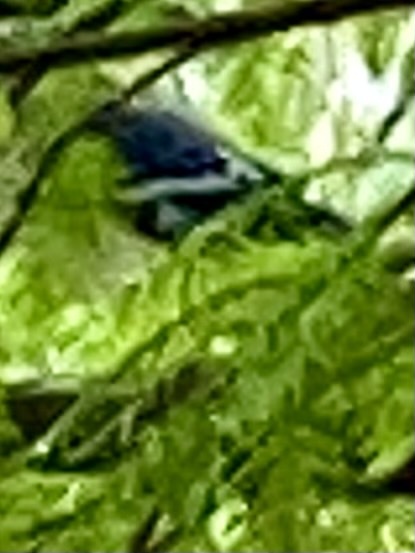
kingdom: Animalia
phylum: Chordata
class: Aves
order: Passeriformes
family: Corvidae
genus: Cyanocitta
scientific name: Cyanocitta cristata
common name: Blue jay
